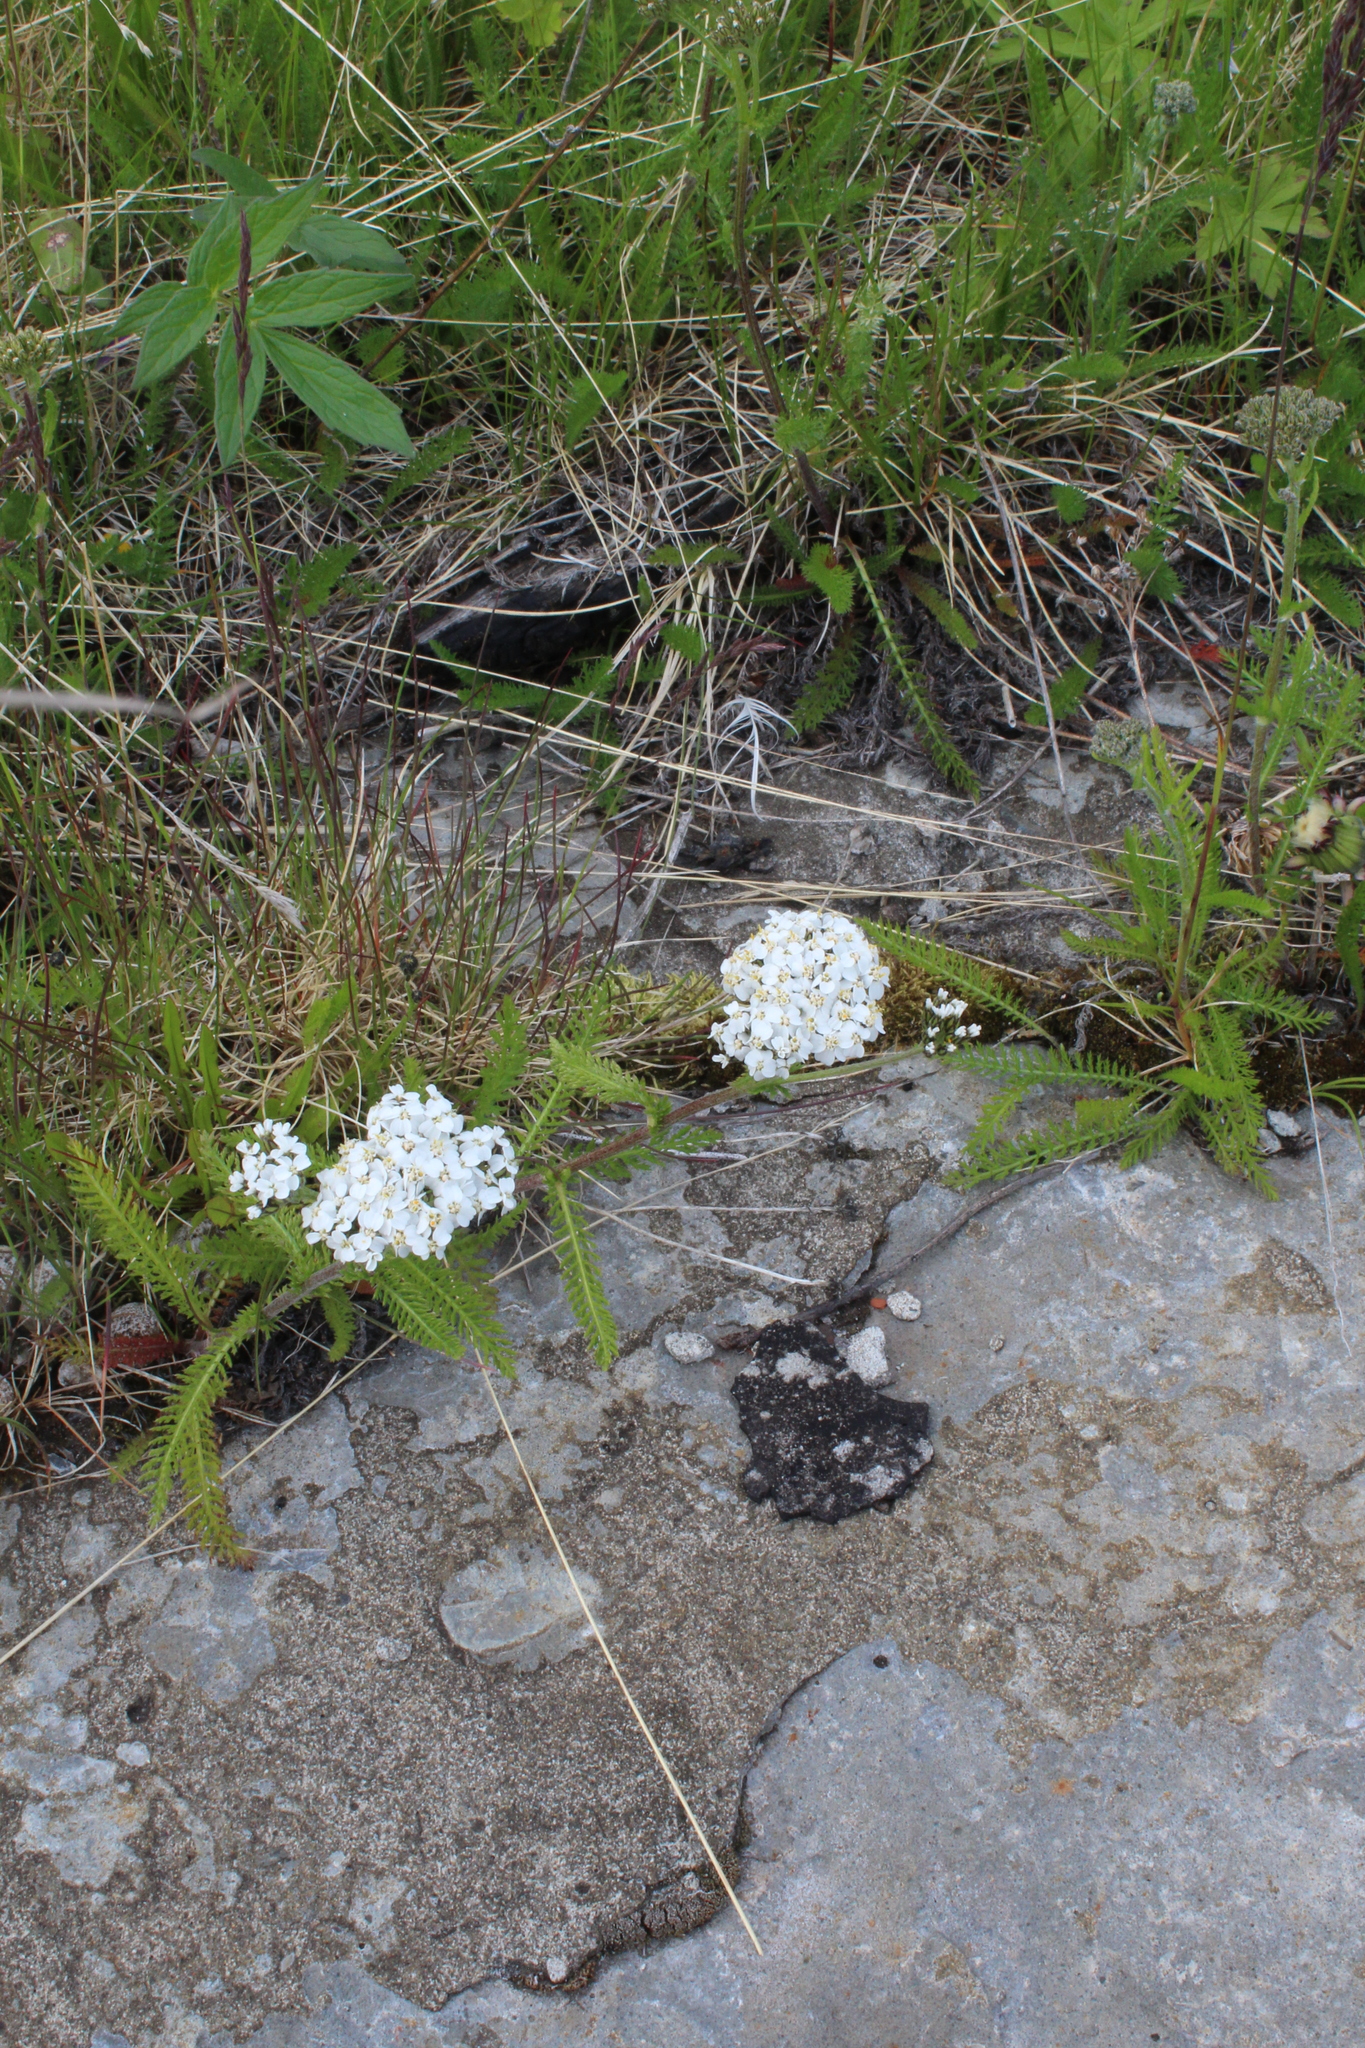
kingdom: Plantae
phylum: Tracheophyta
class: Magnoliopsida
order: Asterales
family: Asteraceae
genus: Achillea
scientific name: Achillea apiculata
